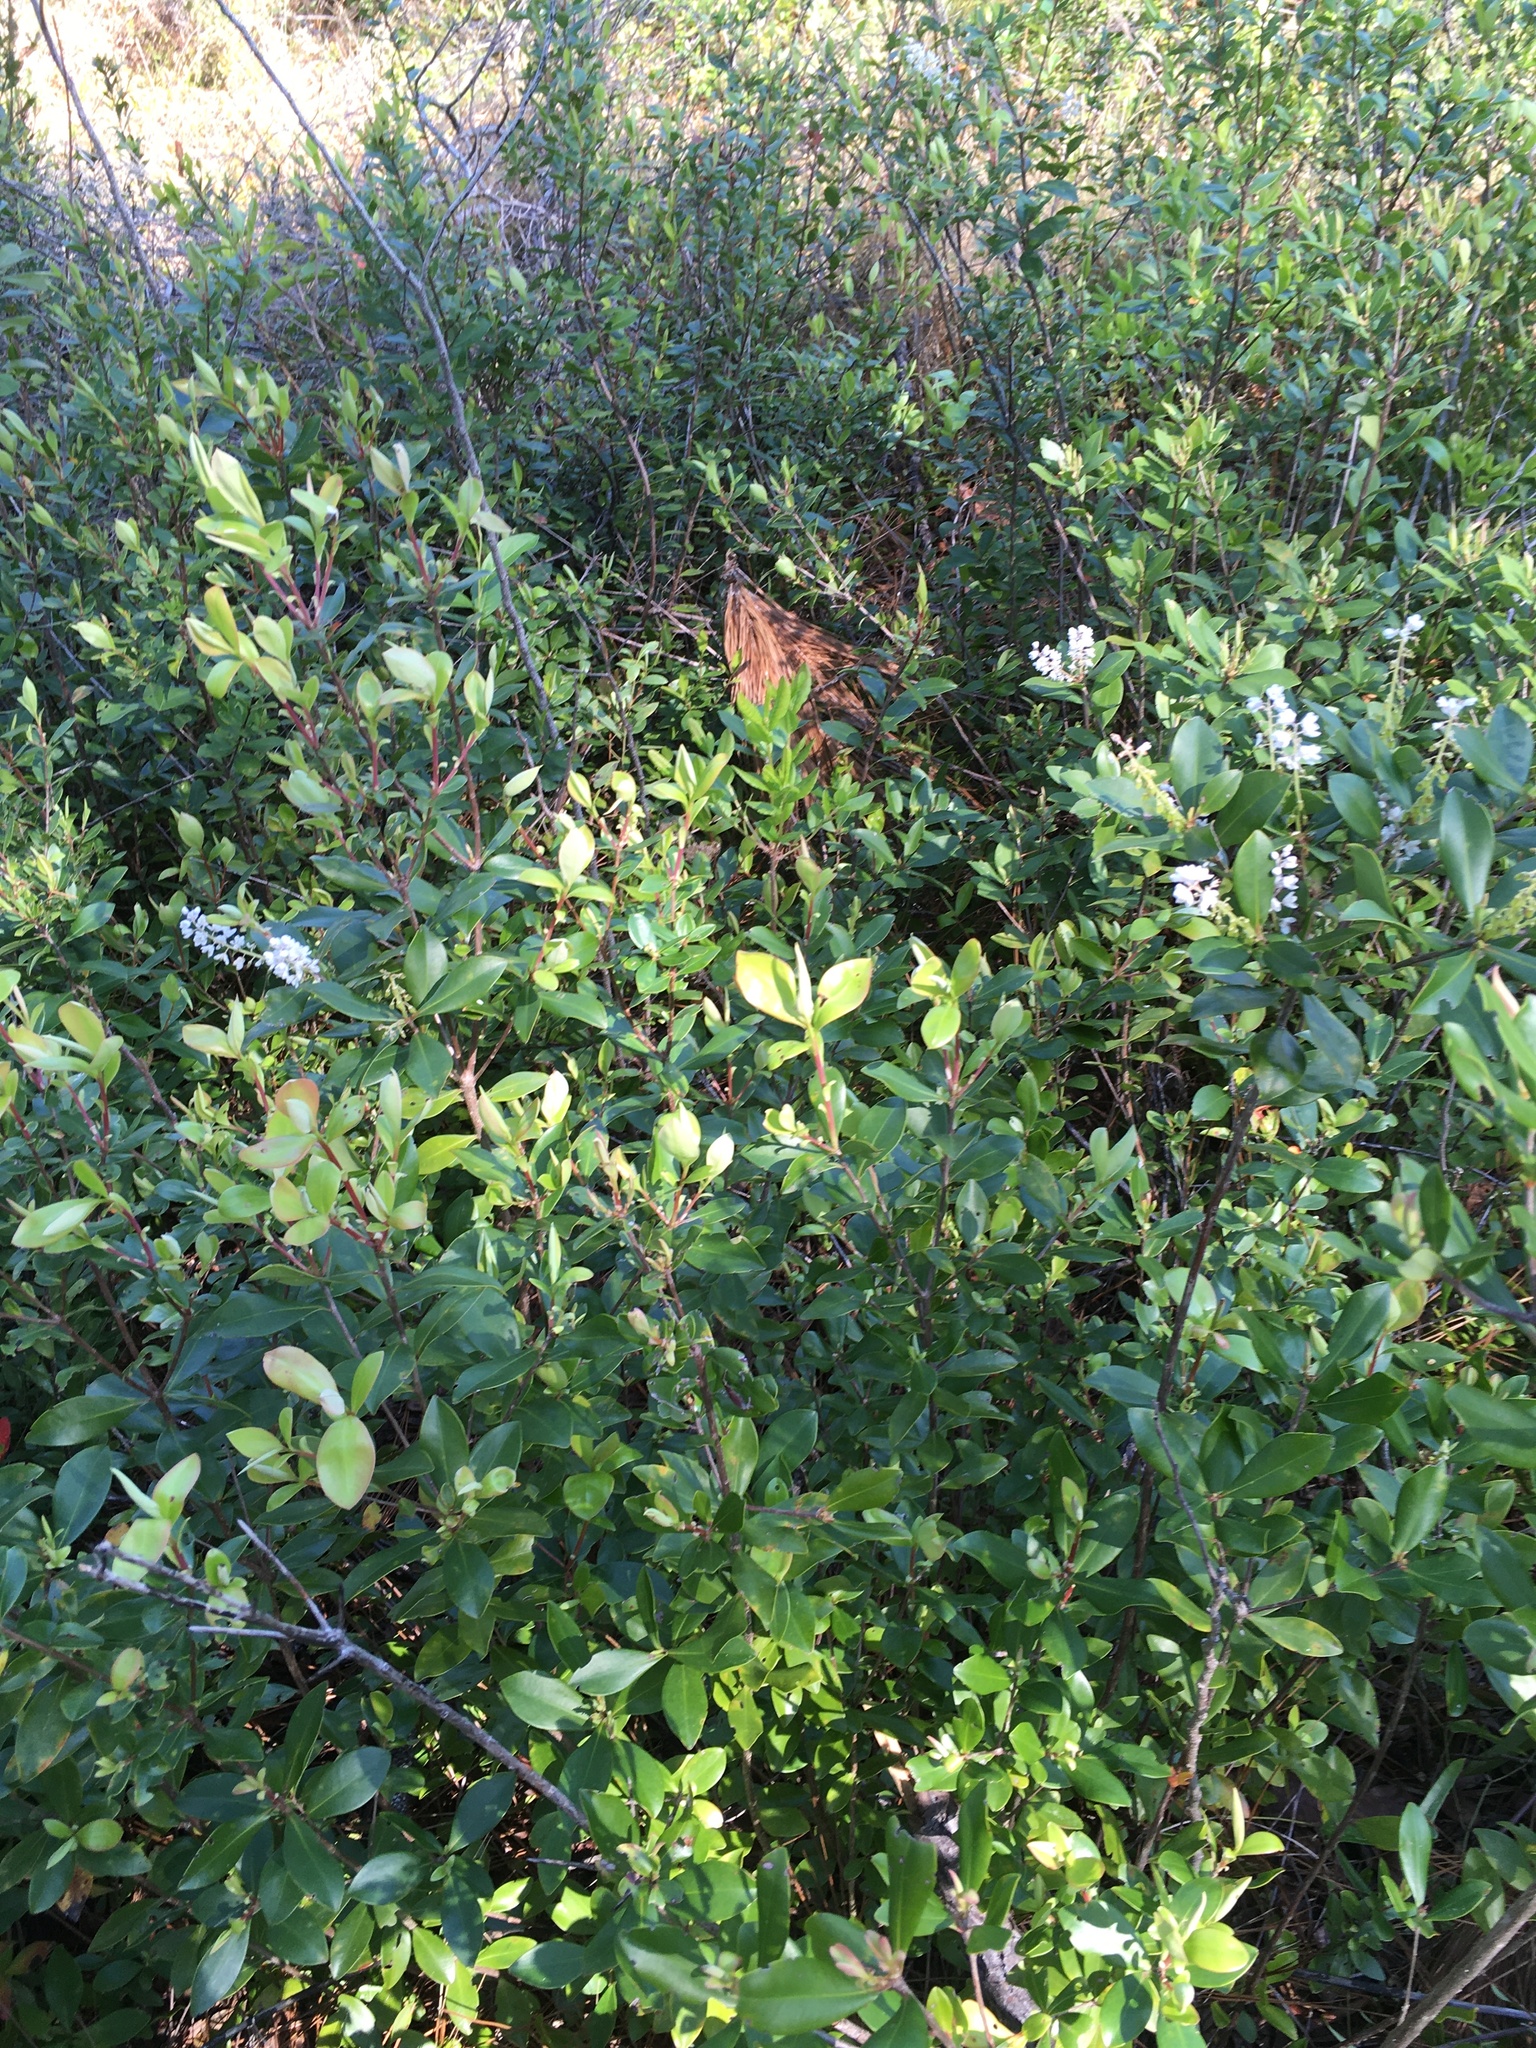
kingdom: Plantae
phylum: Tracheophyta
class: Magnoliopsida
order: Ericales
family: Cyrillaceae
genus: Cliftonia
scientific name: Cliftonia monophylla
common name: Titi
